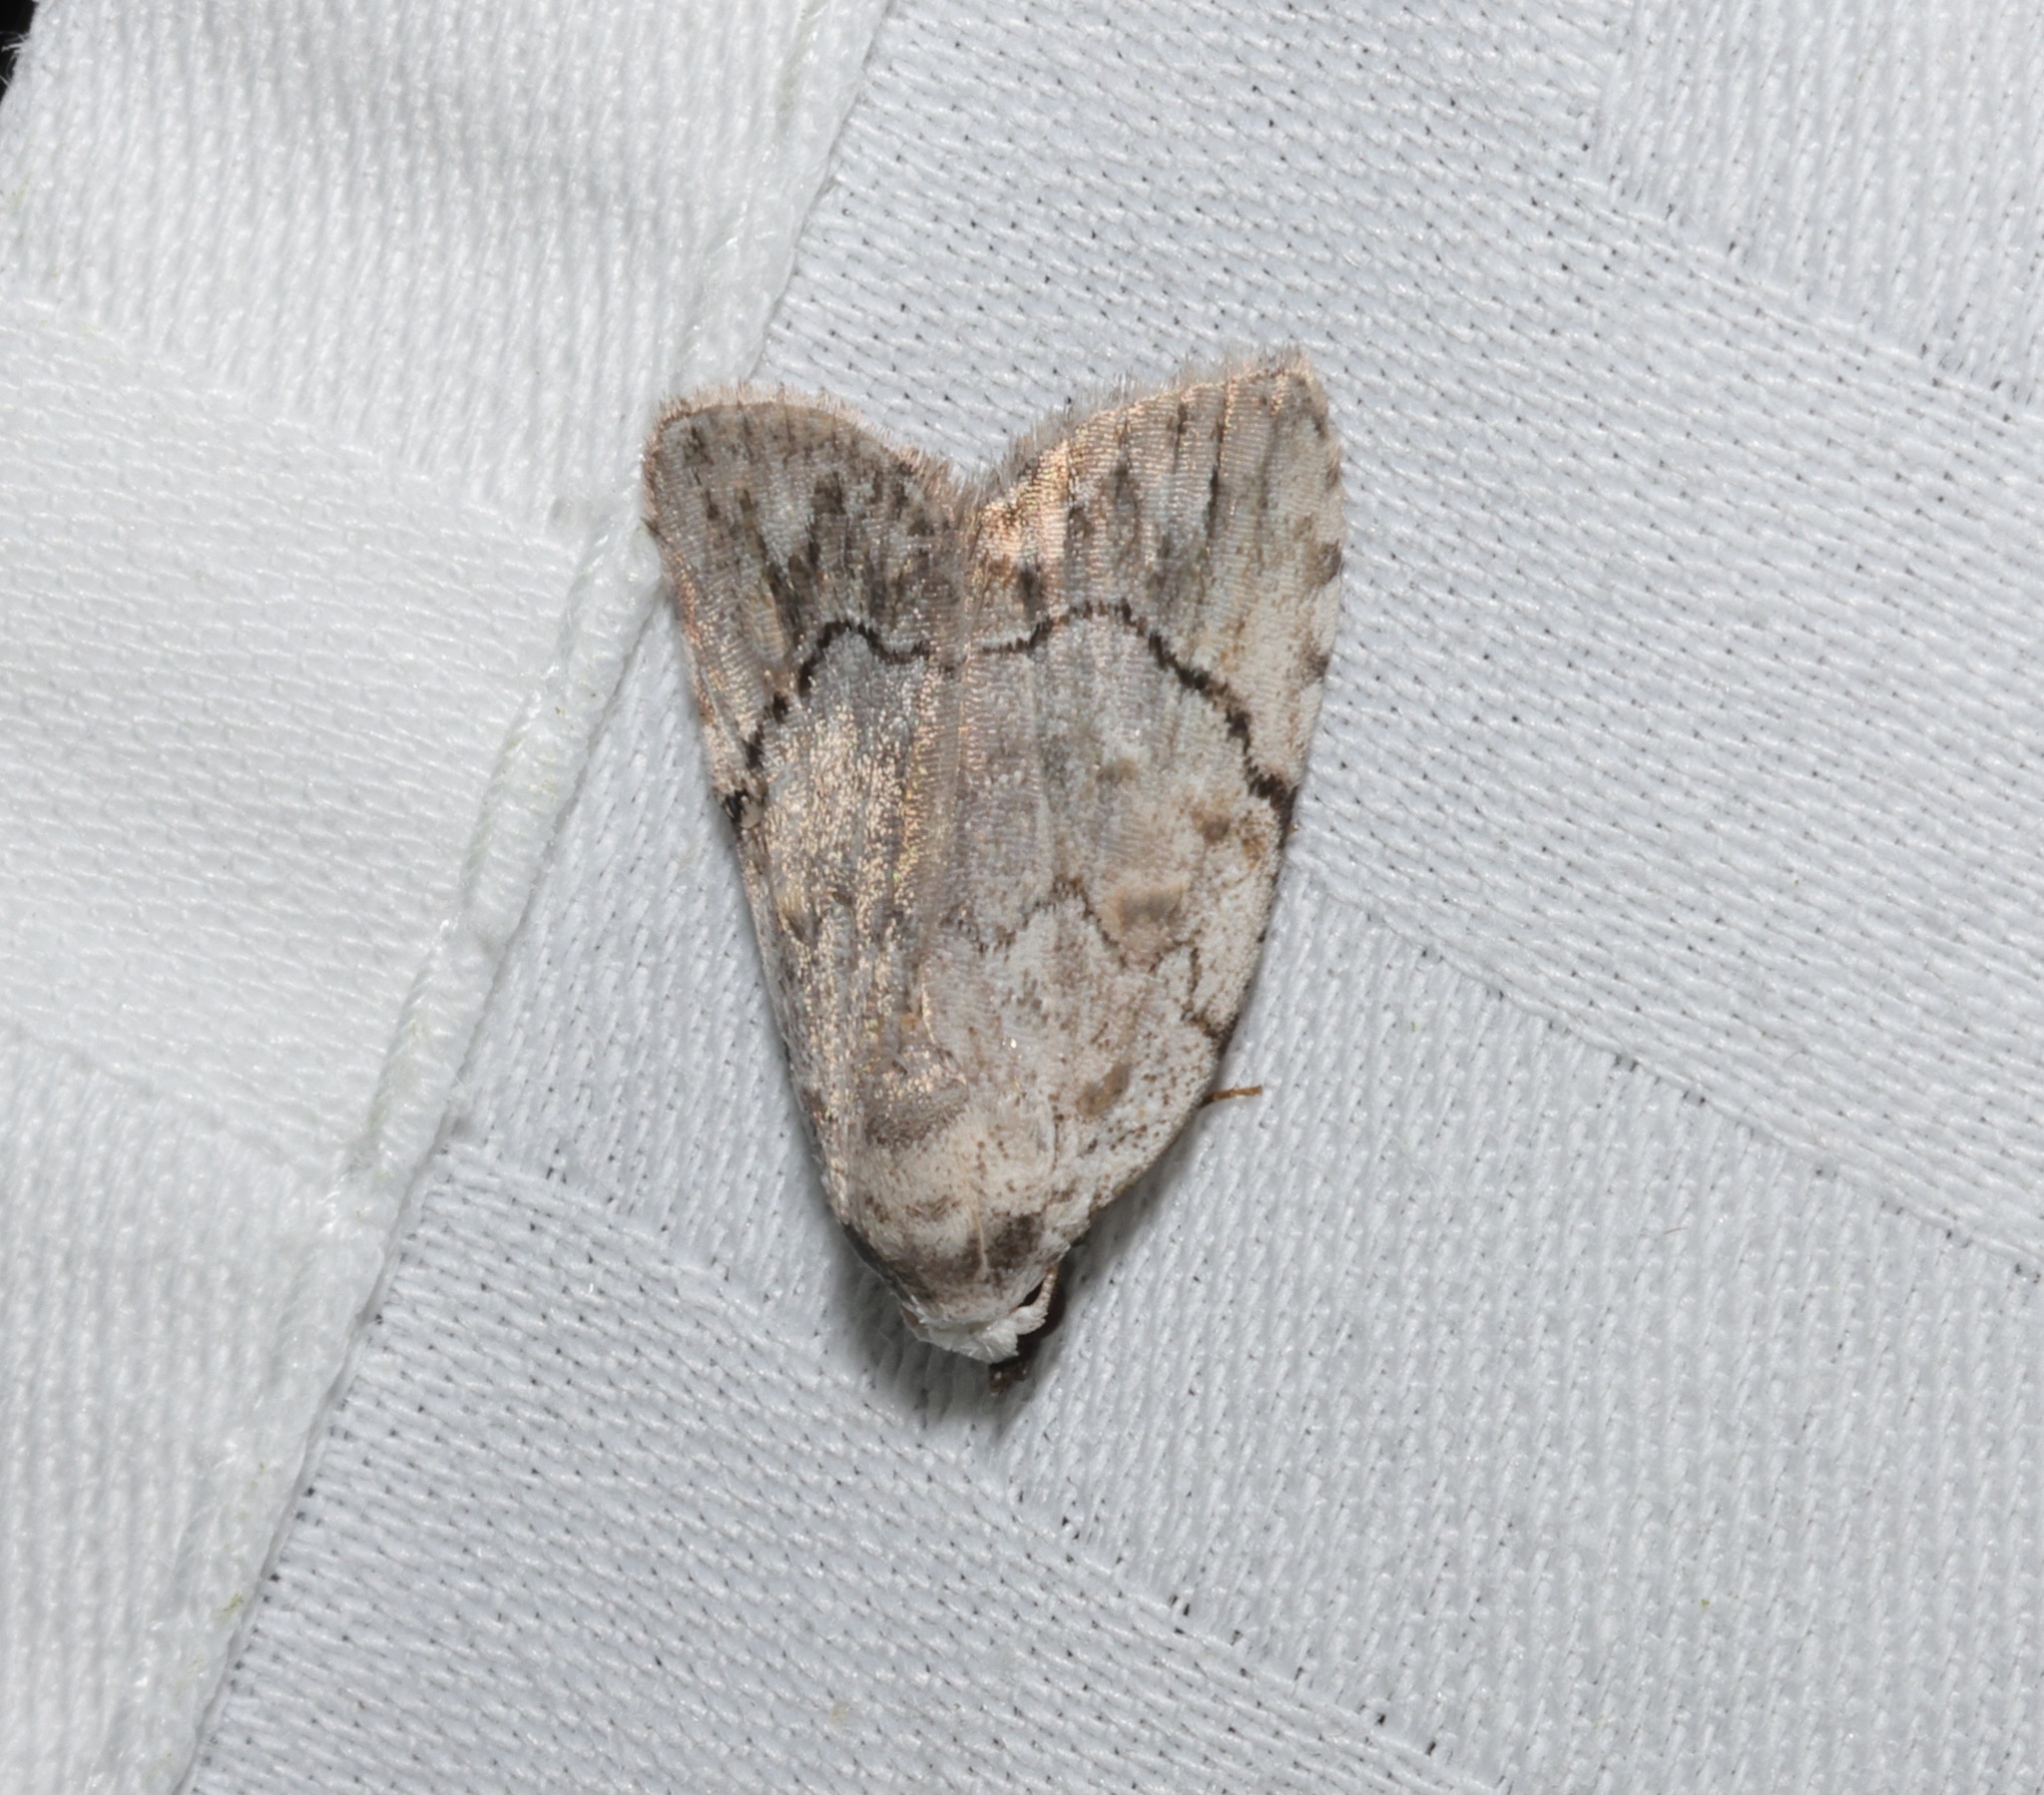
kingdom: Animalia
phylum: Arthropoda
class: Insecta
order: Lepidoptera
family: Nolidae
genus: Melanographia
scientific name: Melanographia flexilineata
